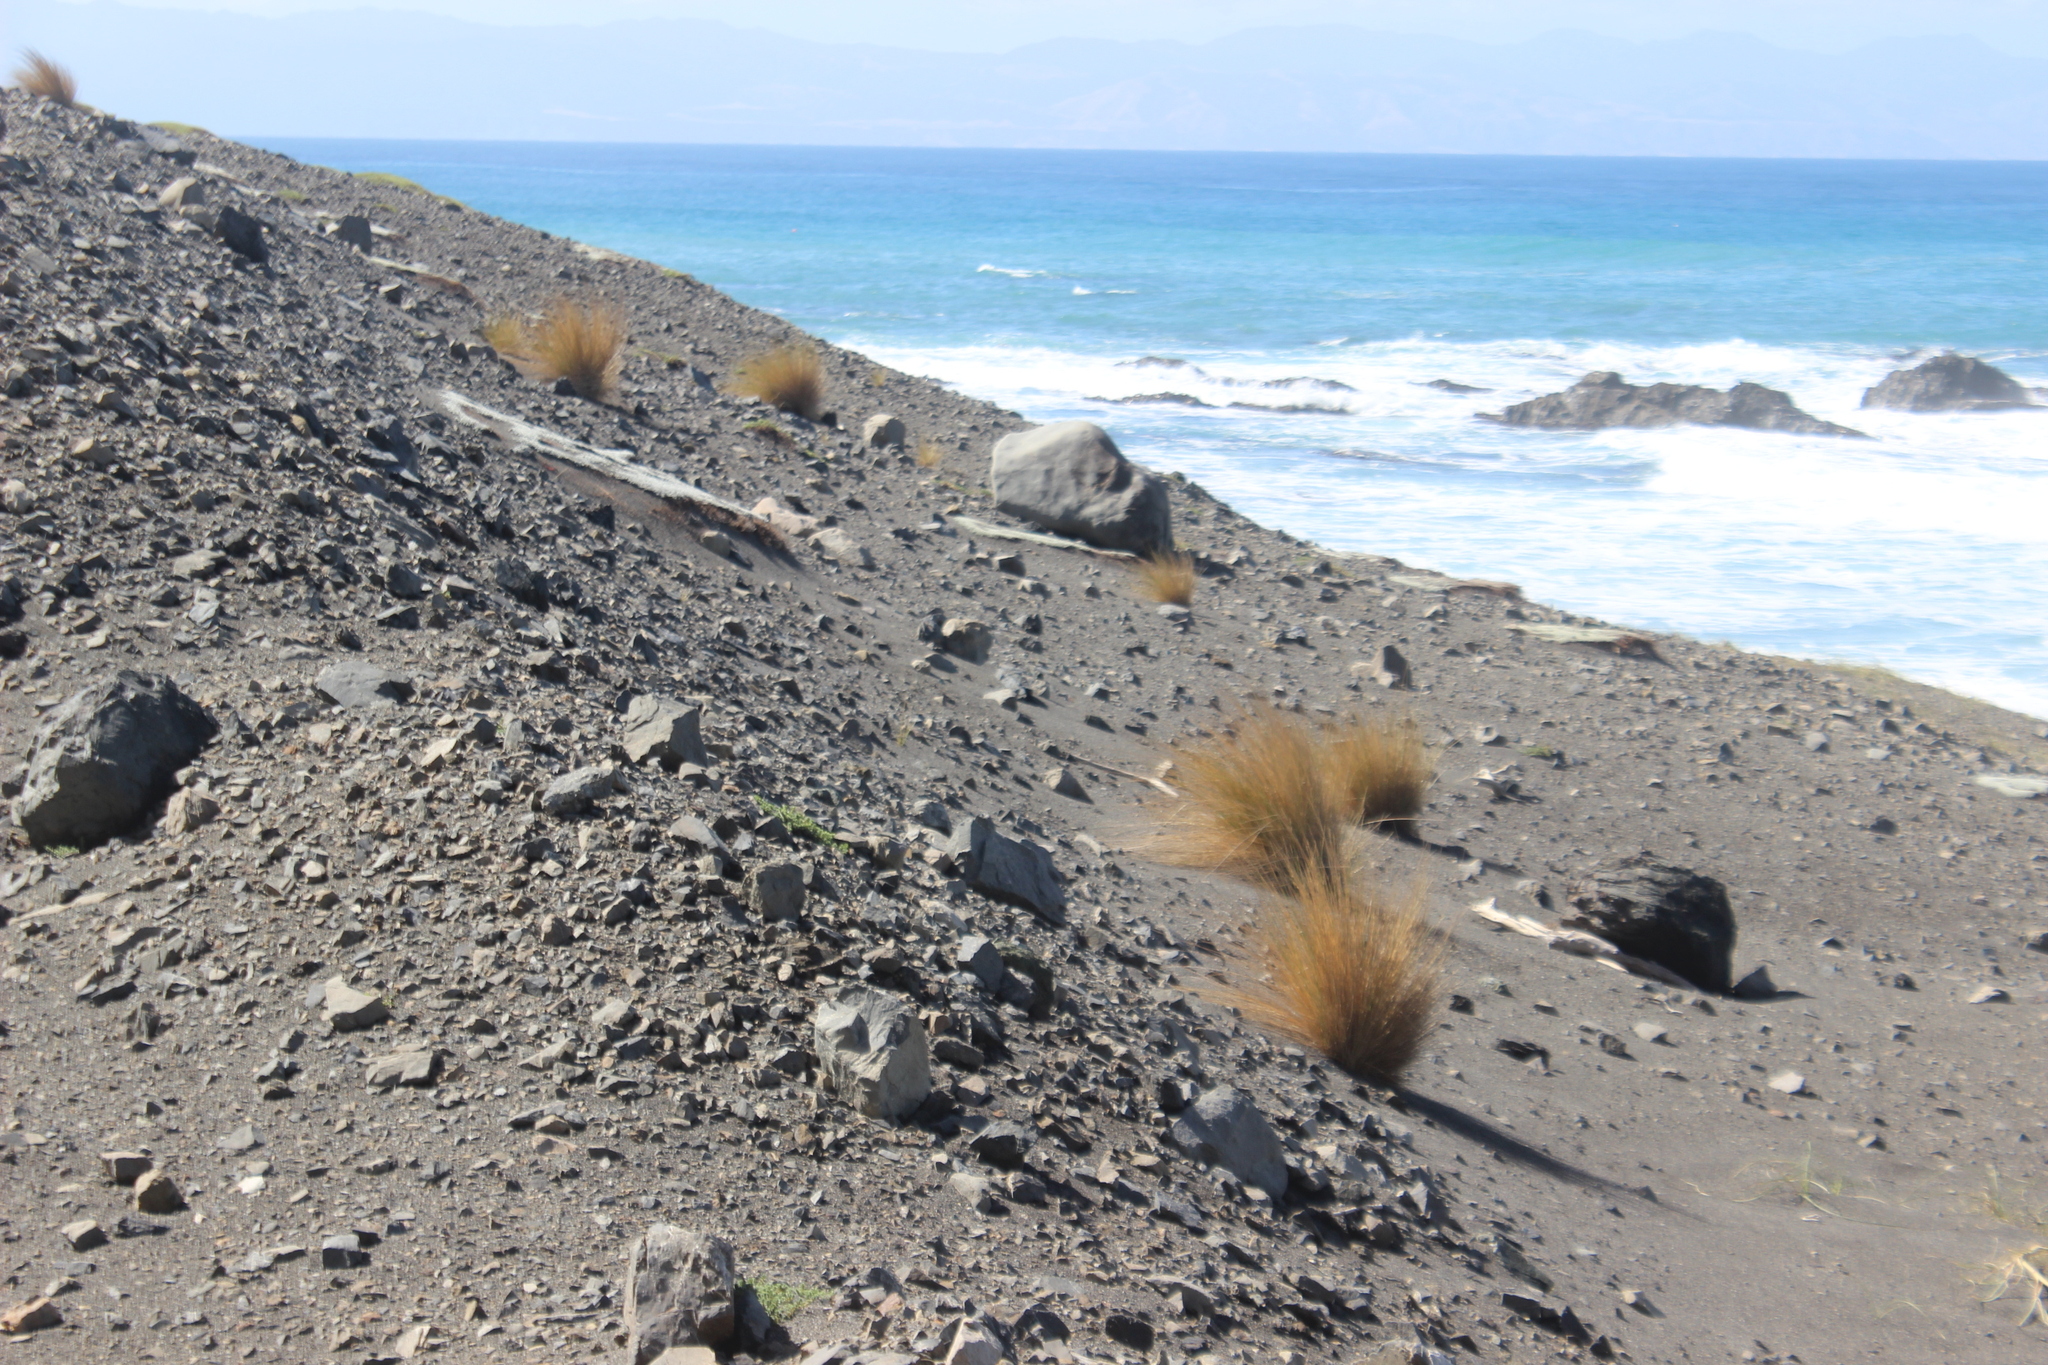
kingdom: Plantae
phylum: Tracheophyta
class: Liliopsida
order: Poales
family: Poaceae
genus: Poa
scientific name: Poa billardierei
